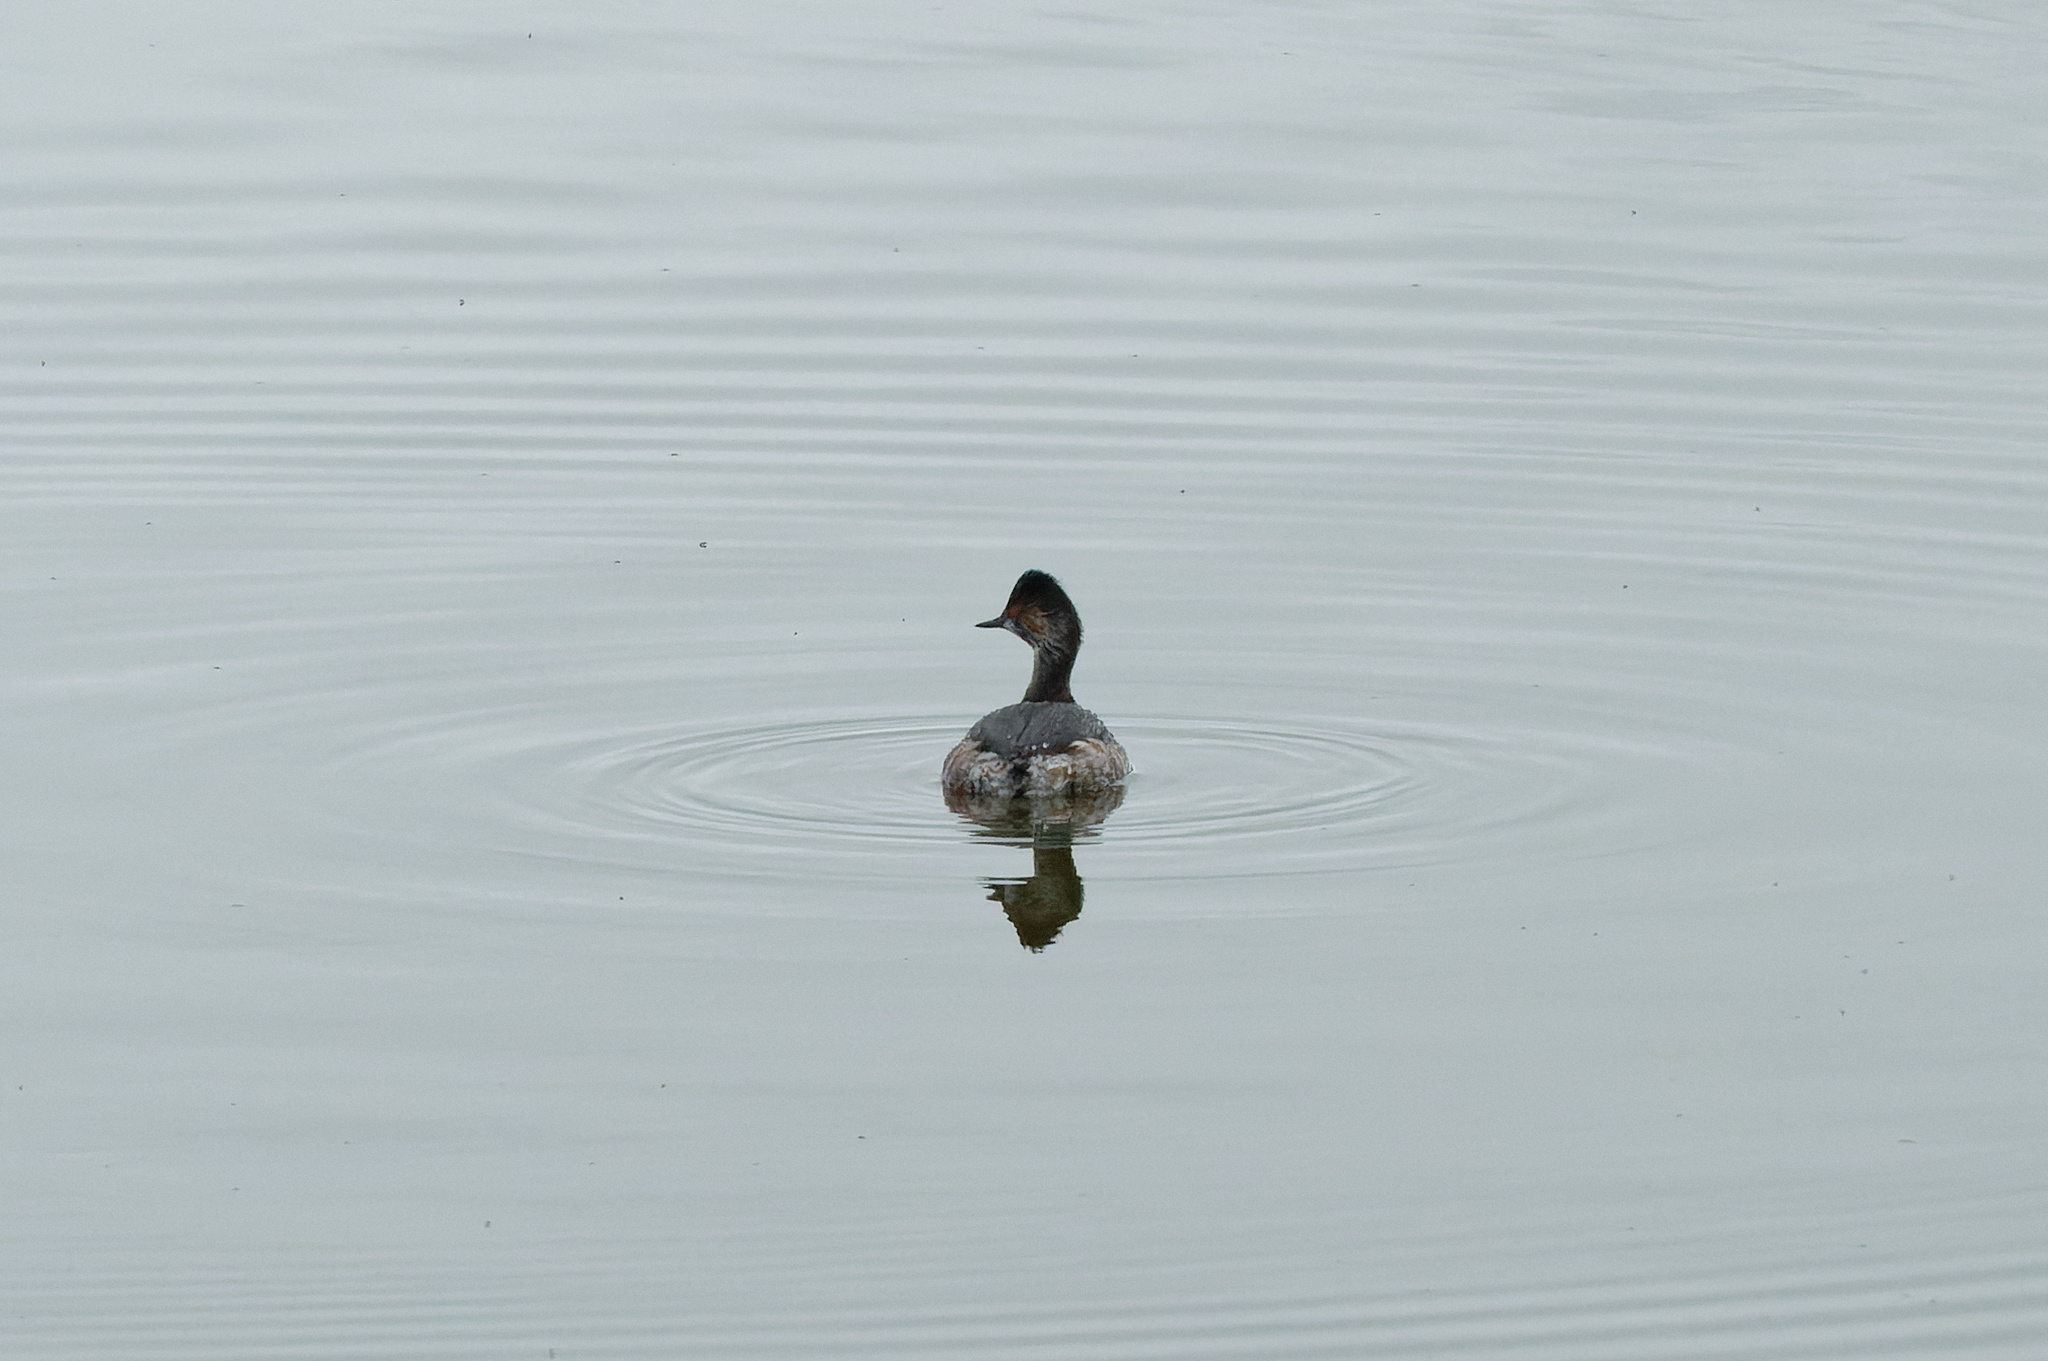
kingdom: Animalia
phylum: Chordata
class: Aves
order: Podicipediformes
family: Podicipedidae
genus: Podiceps
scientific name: Podiceps nigricollis
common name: Black-necked grebe
